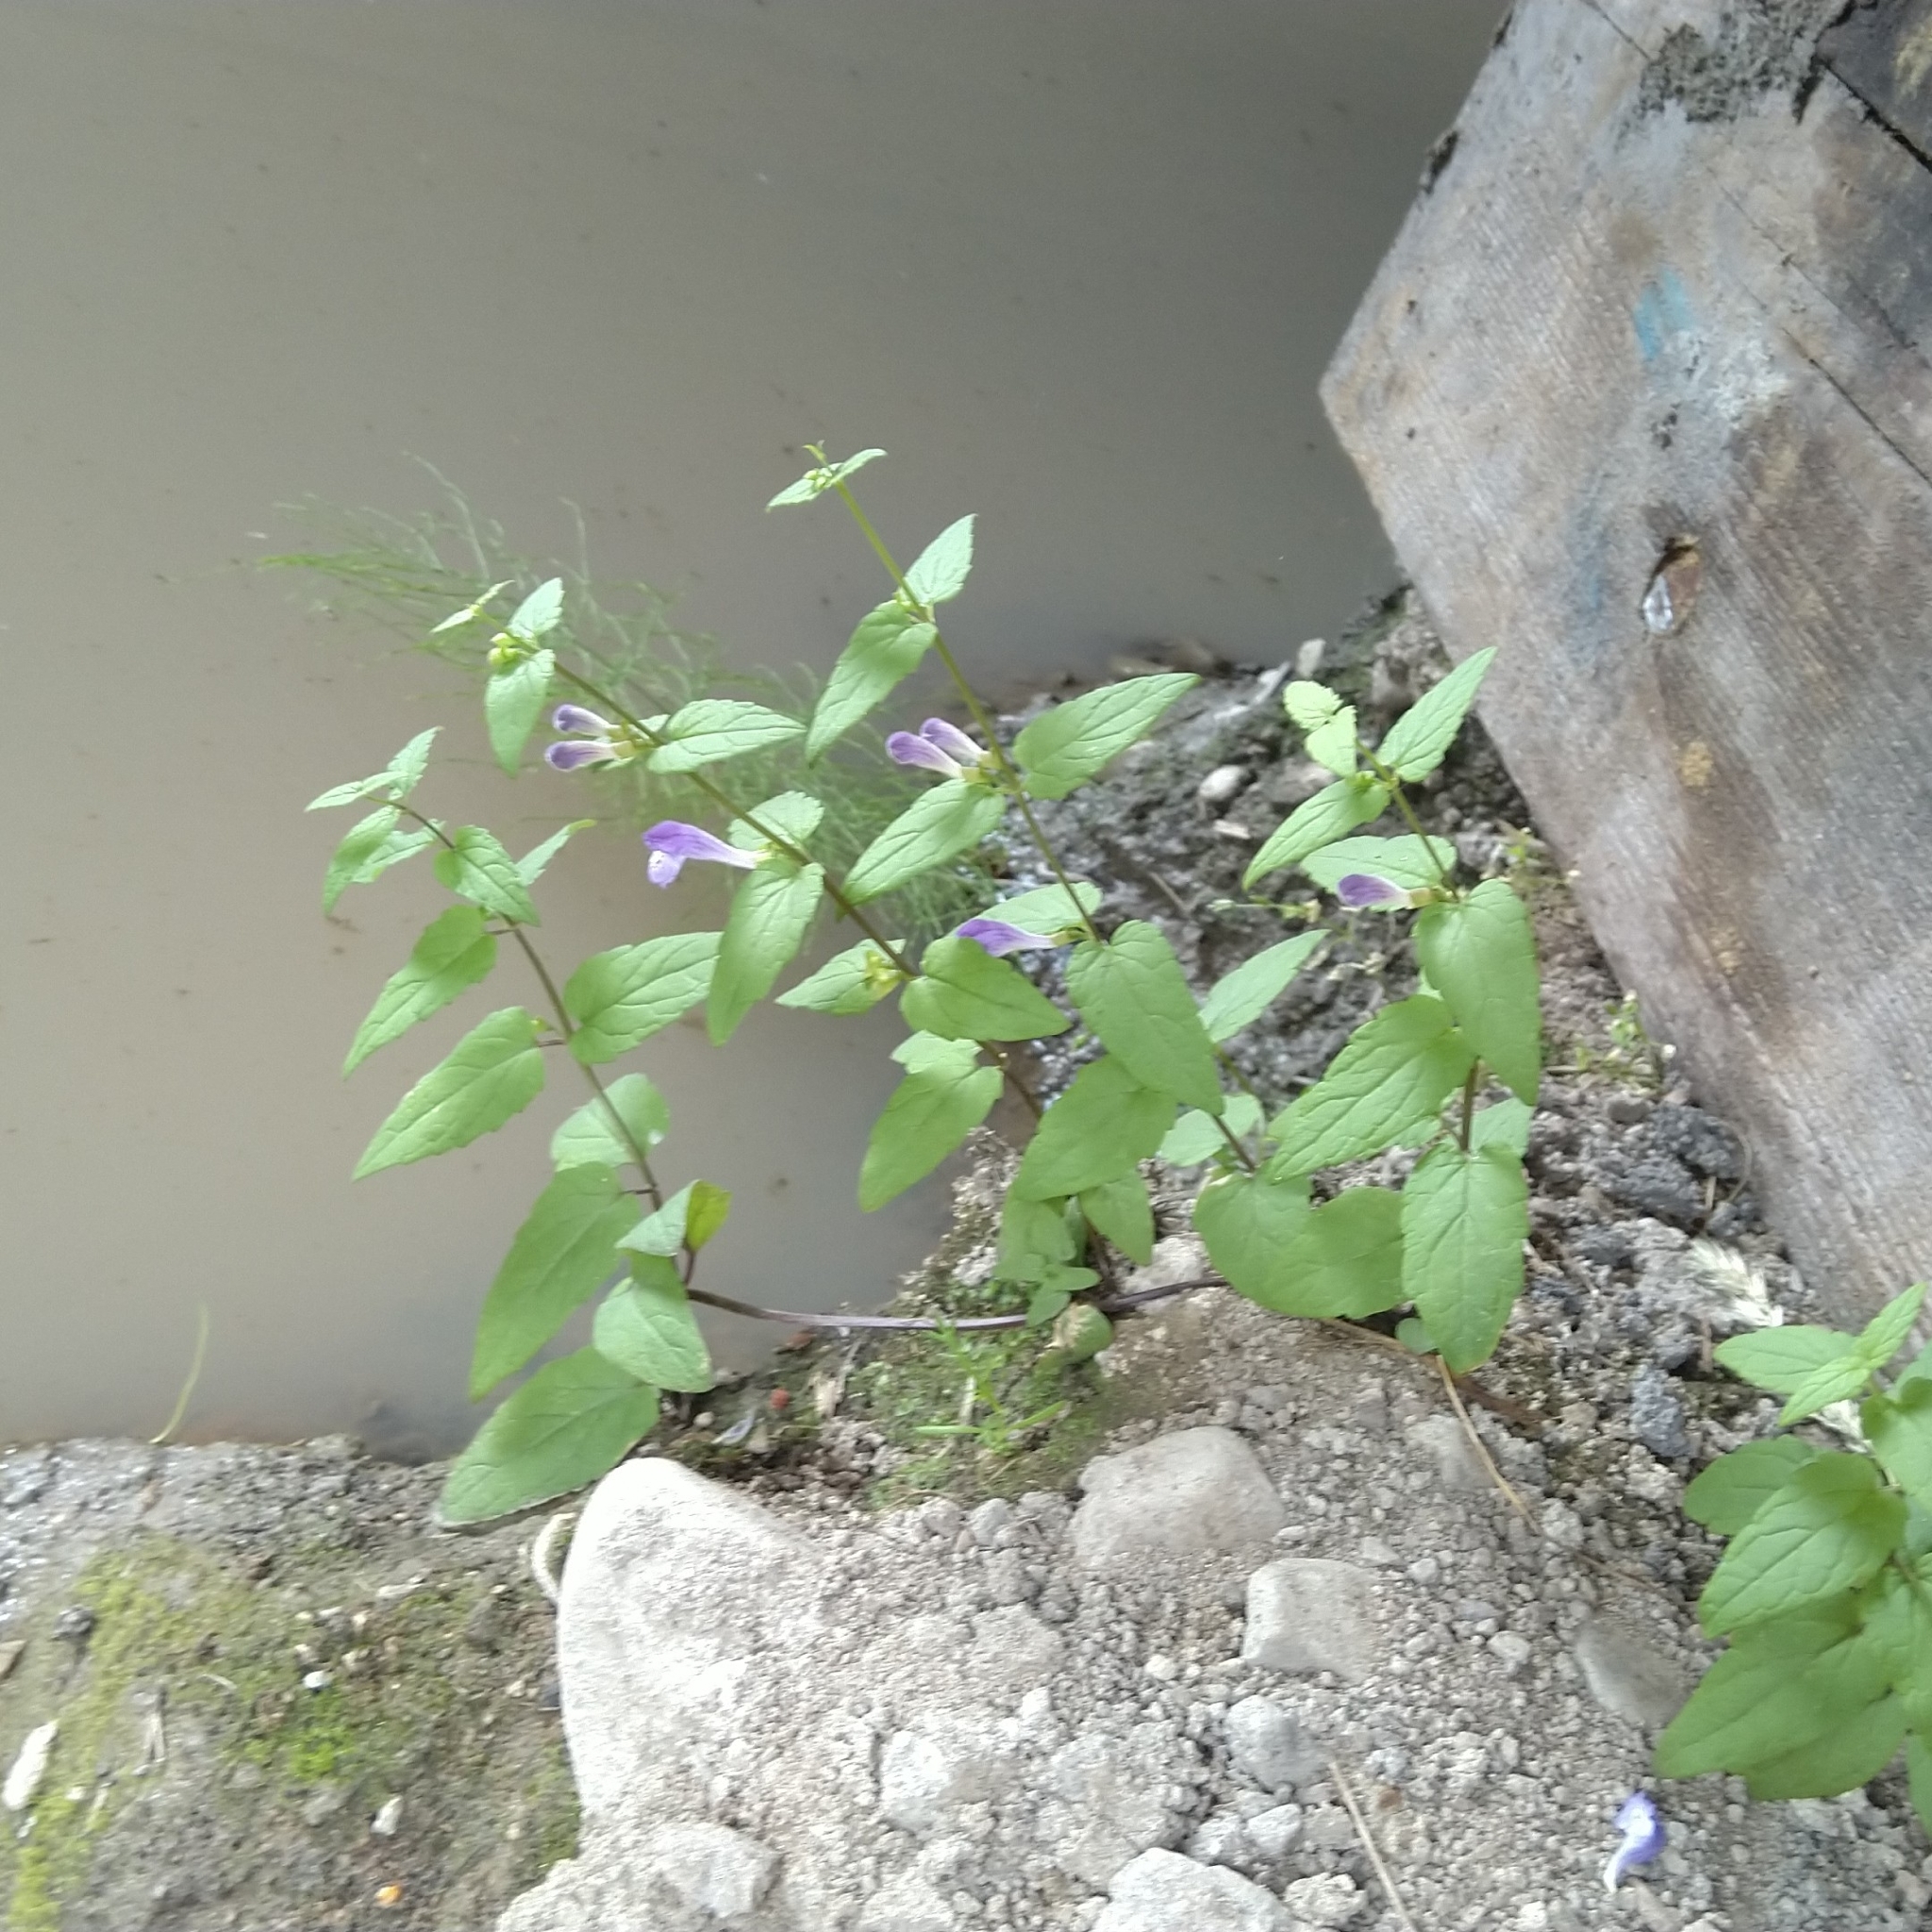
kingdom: Plantae
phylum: Tracheophyta
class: Magnoliopsida
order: Lamiales
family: Lamiaceae
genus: Scutellaria
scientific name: Scutellaria galericulata
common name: Skullcap
